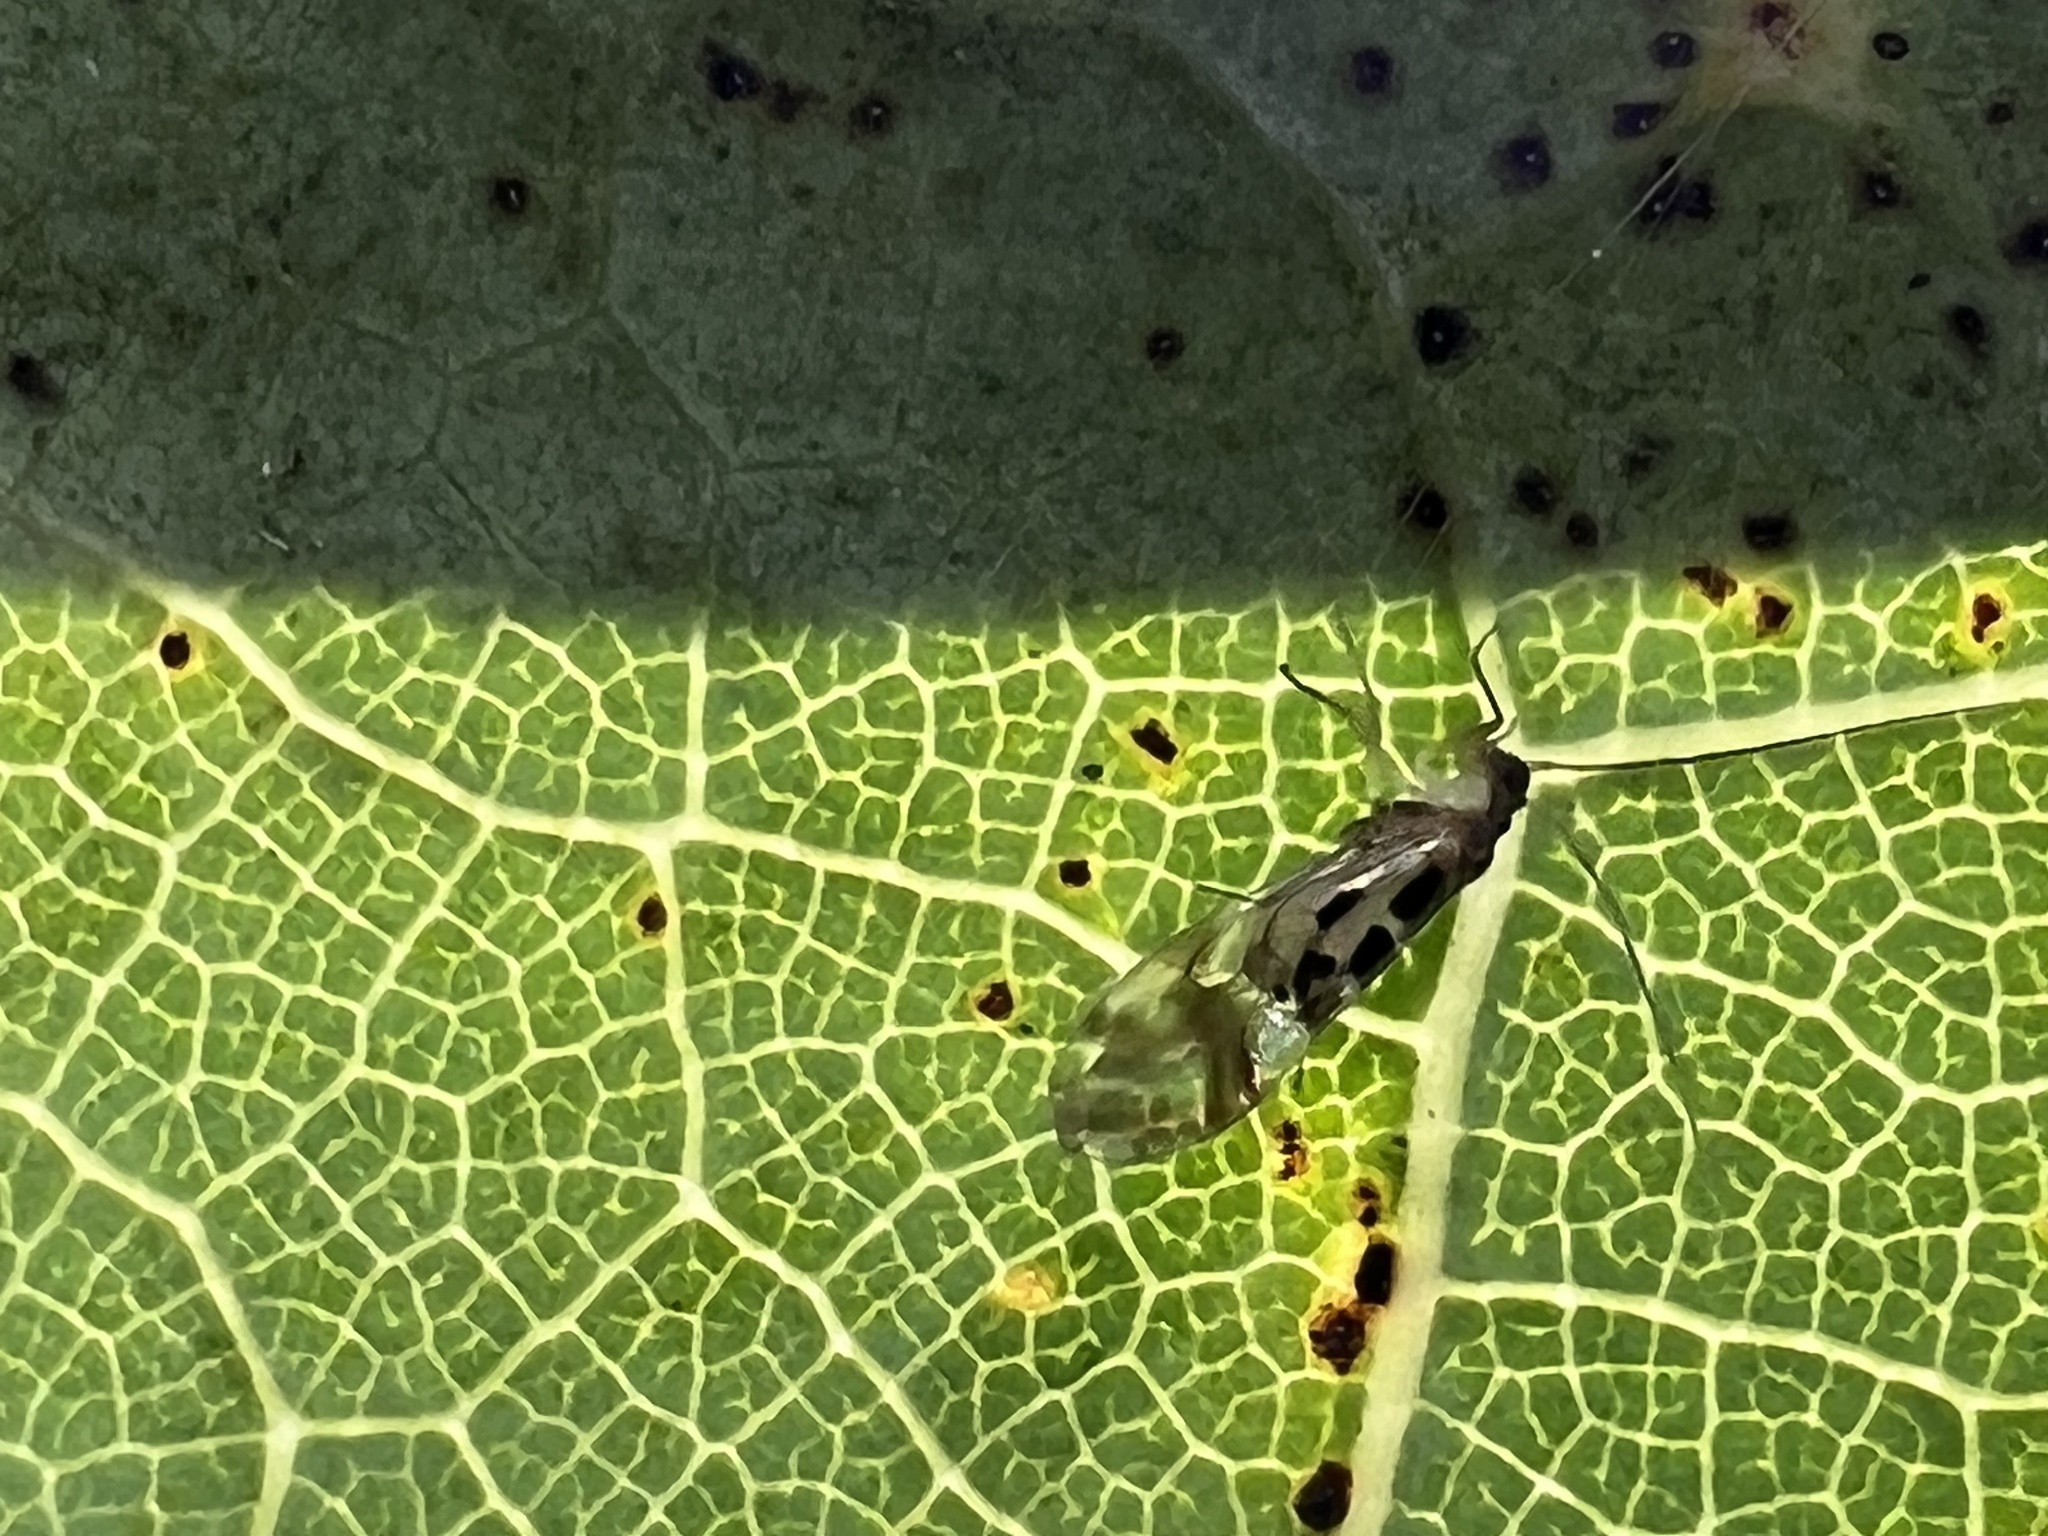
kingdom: Animalia
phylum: Arthropoda
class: Insecta
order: Psocodea
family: Stenopsocidae
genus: Graphopsocus
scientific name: Graphopsocus cruciatus
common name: Lizard bark louse
